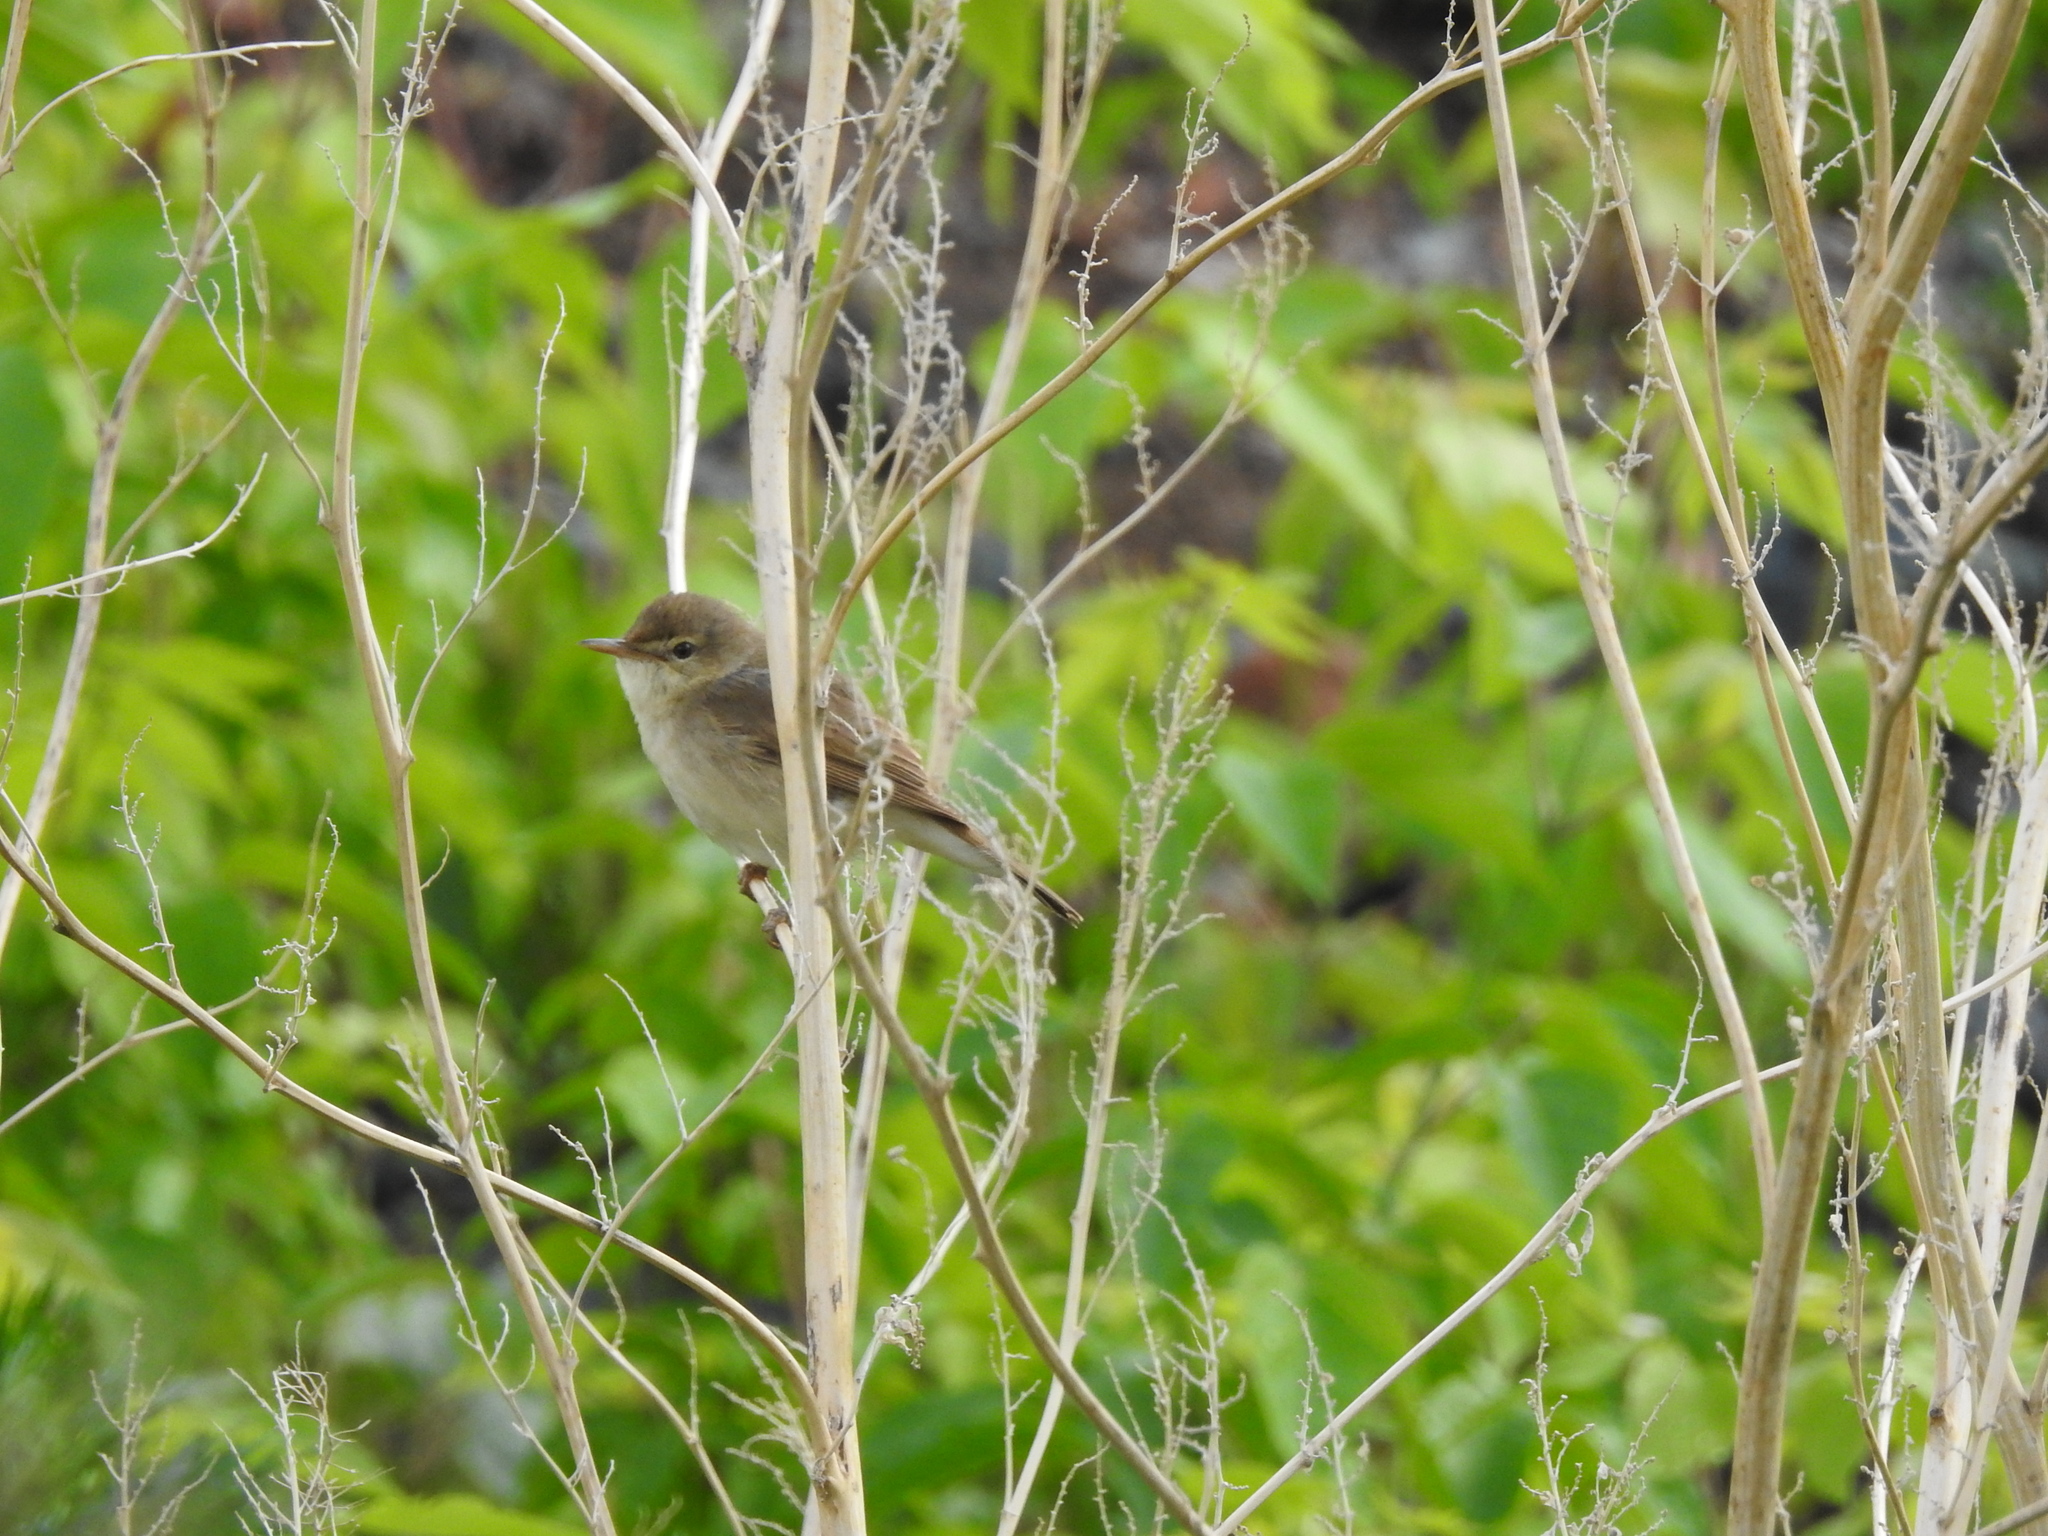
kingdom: Animalia
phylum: Chordata
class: Aves
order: Passeriformes
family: Acrocephalidae
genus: Acrocephalus
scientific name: Acrocephalus palustris
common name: Marsh warbler
